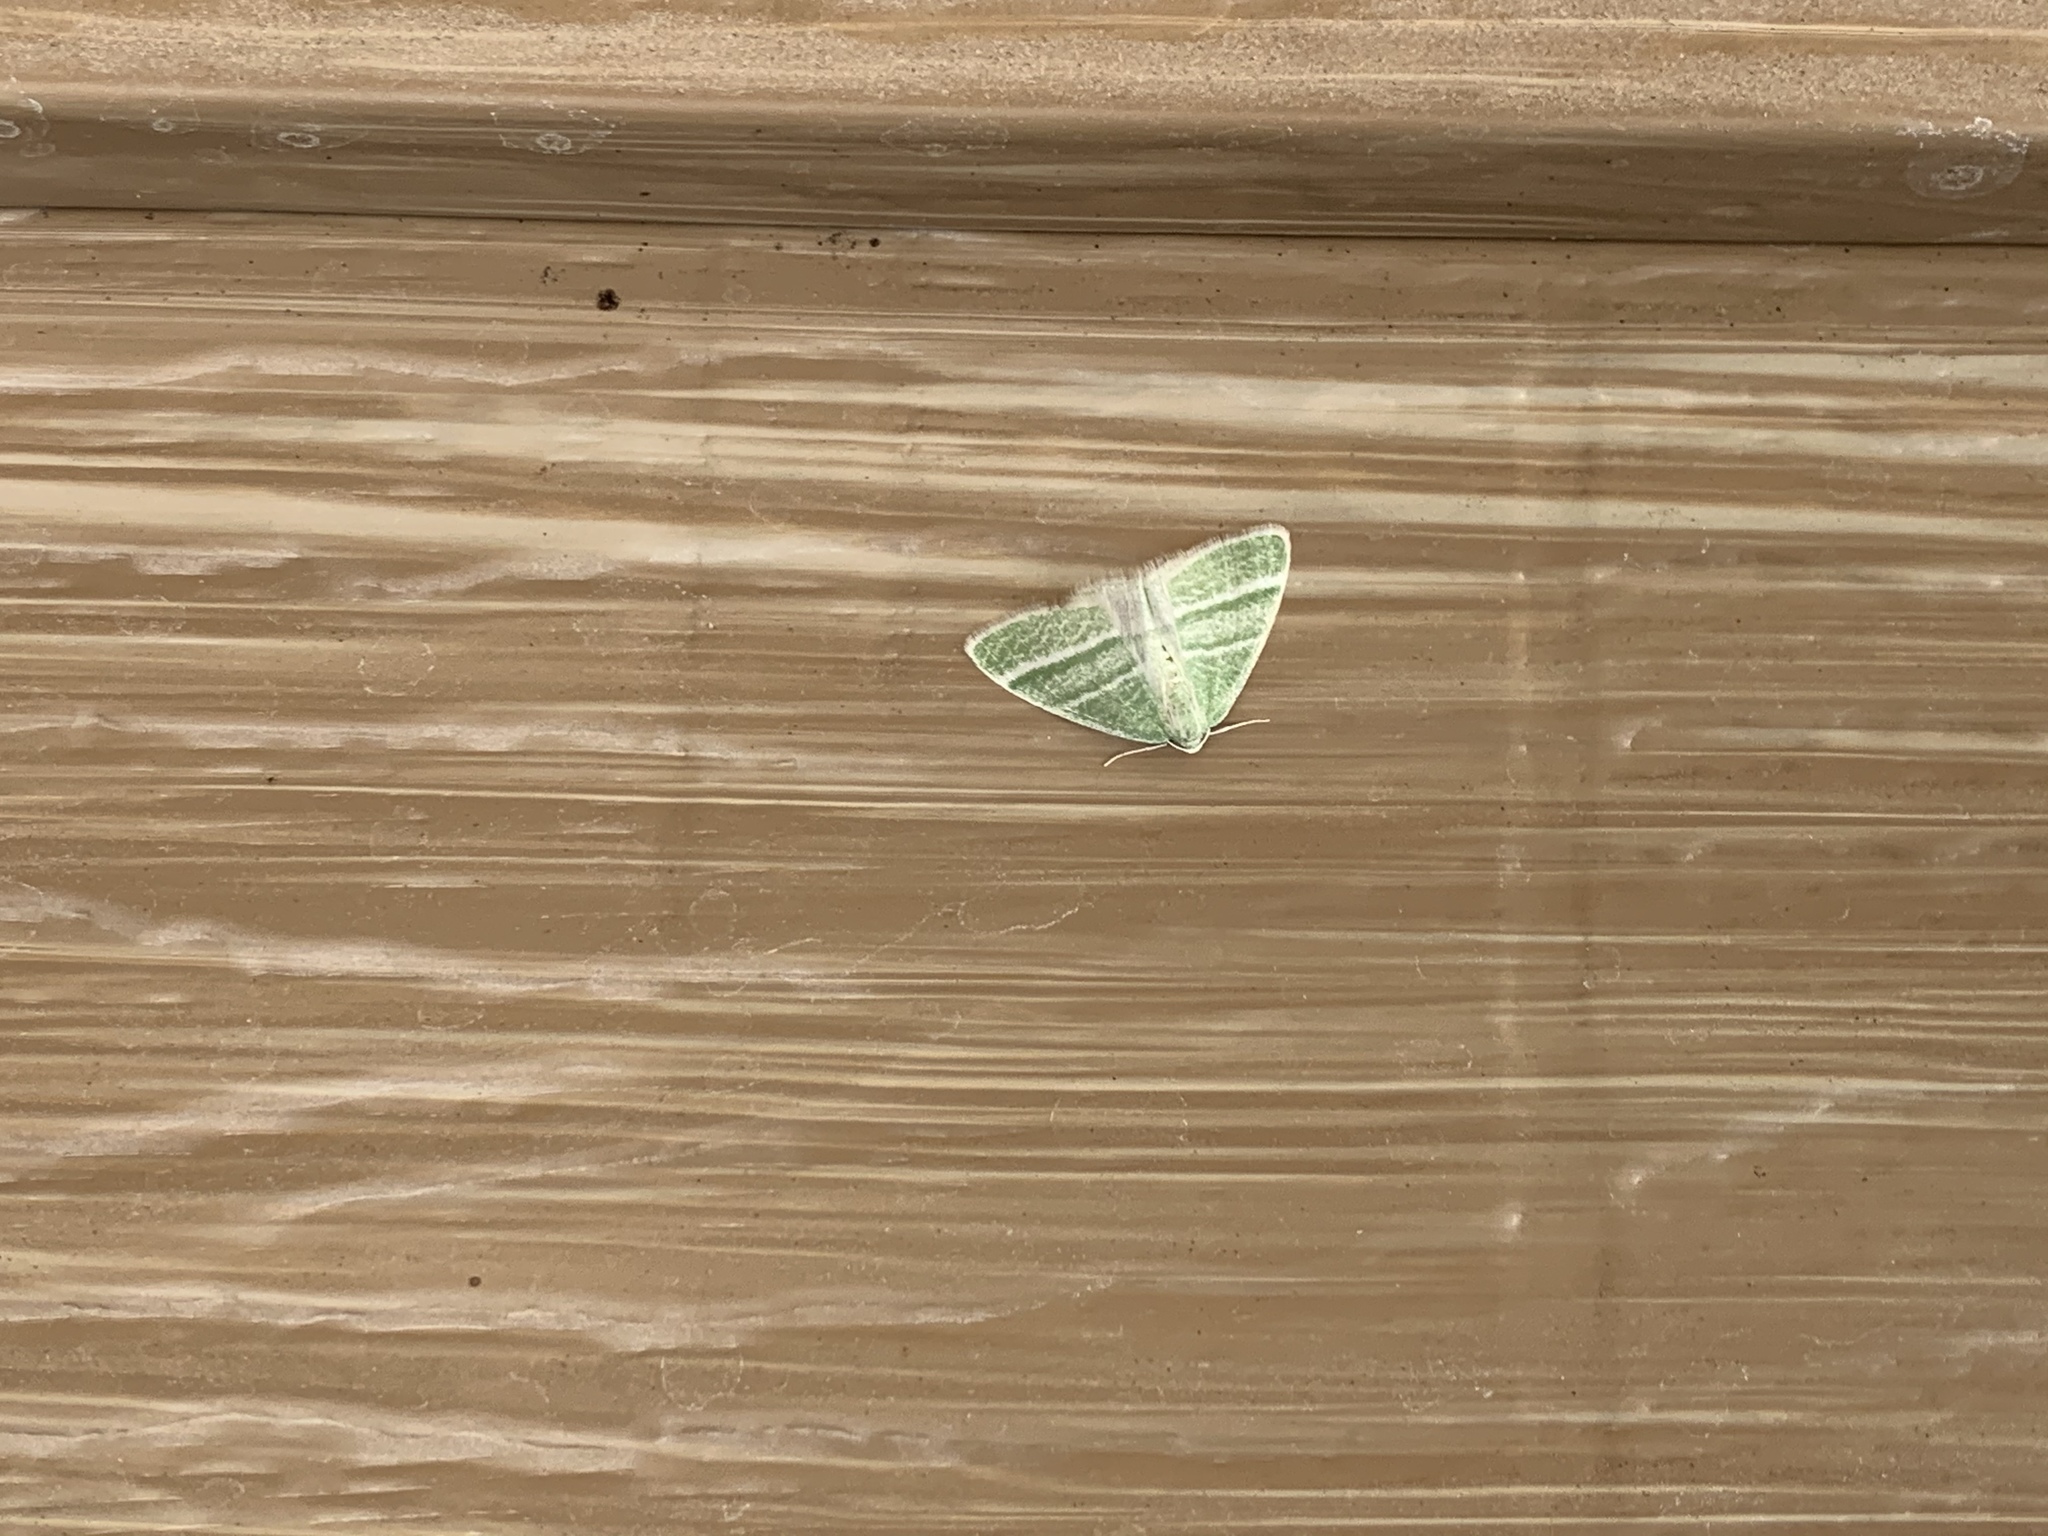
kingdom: Animalia
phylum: Arthropoda
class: Insecta
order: Lepidoptera
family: Geometridae
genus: Nemoria
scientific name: Nemoria diamesa
